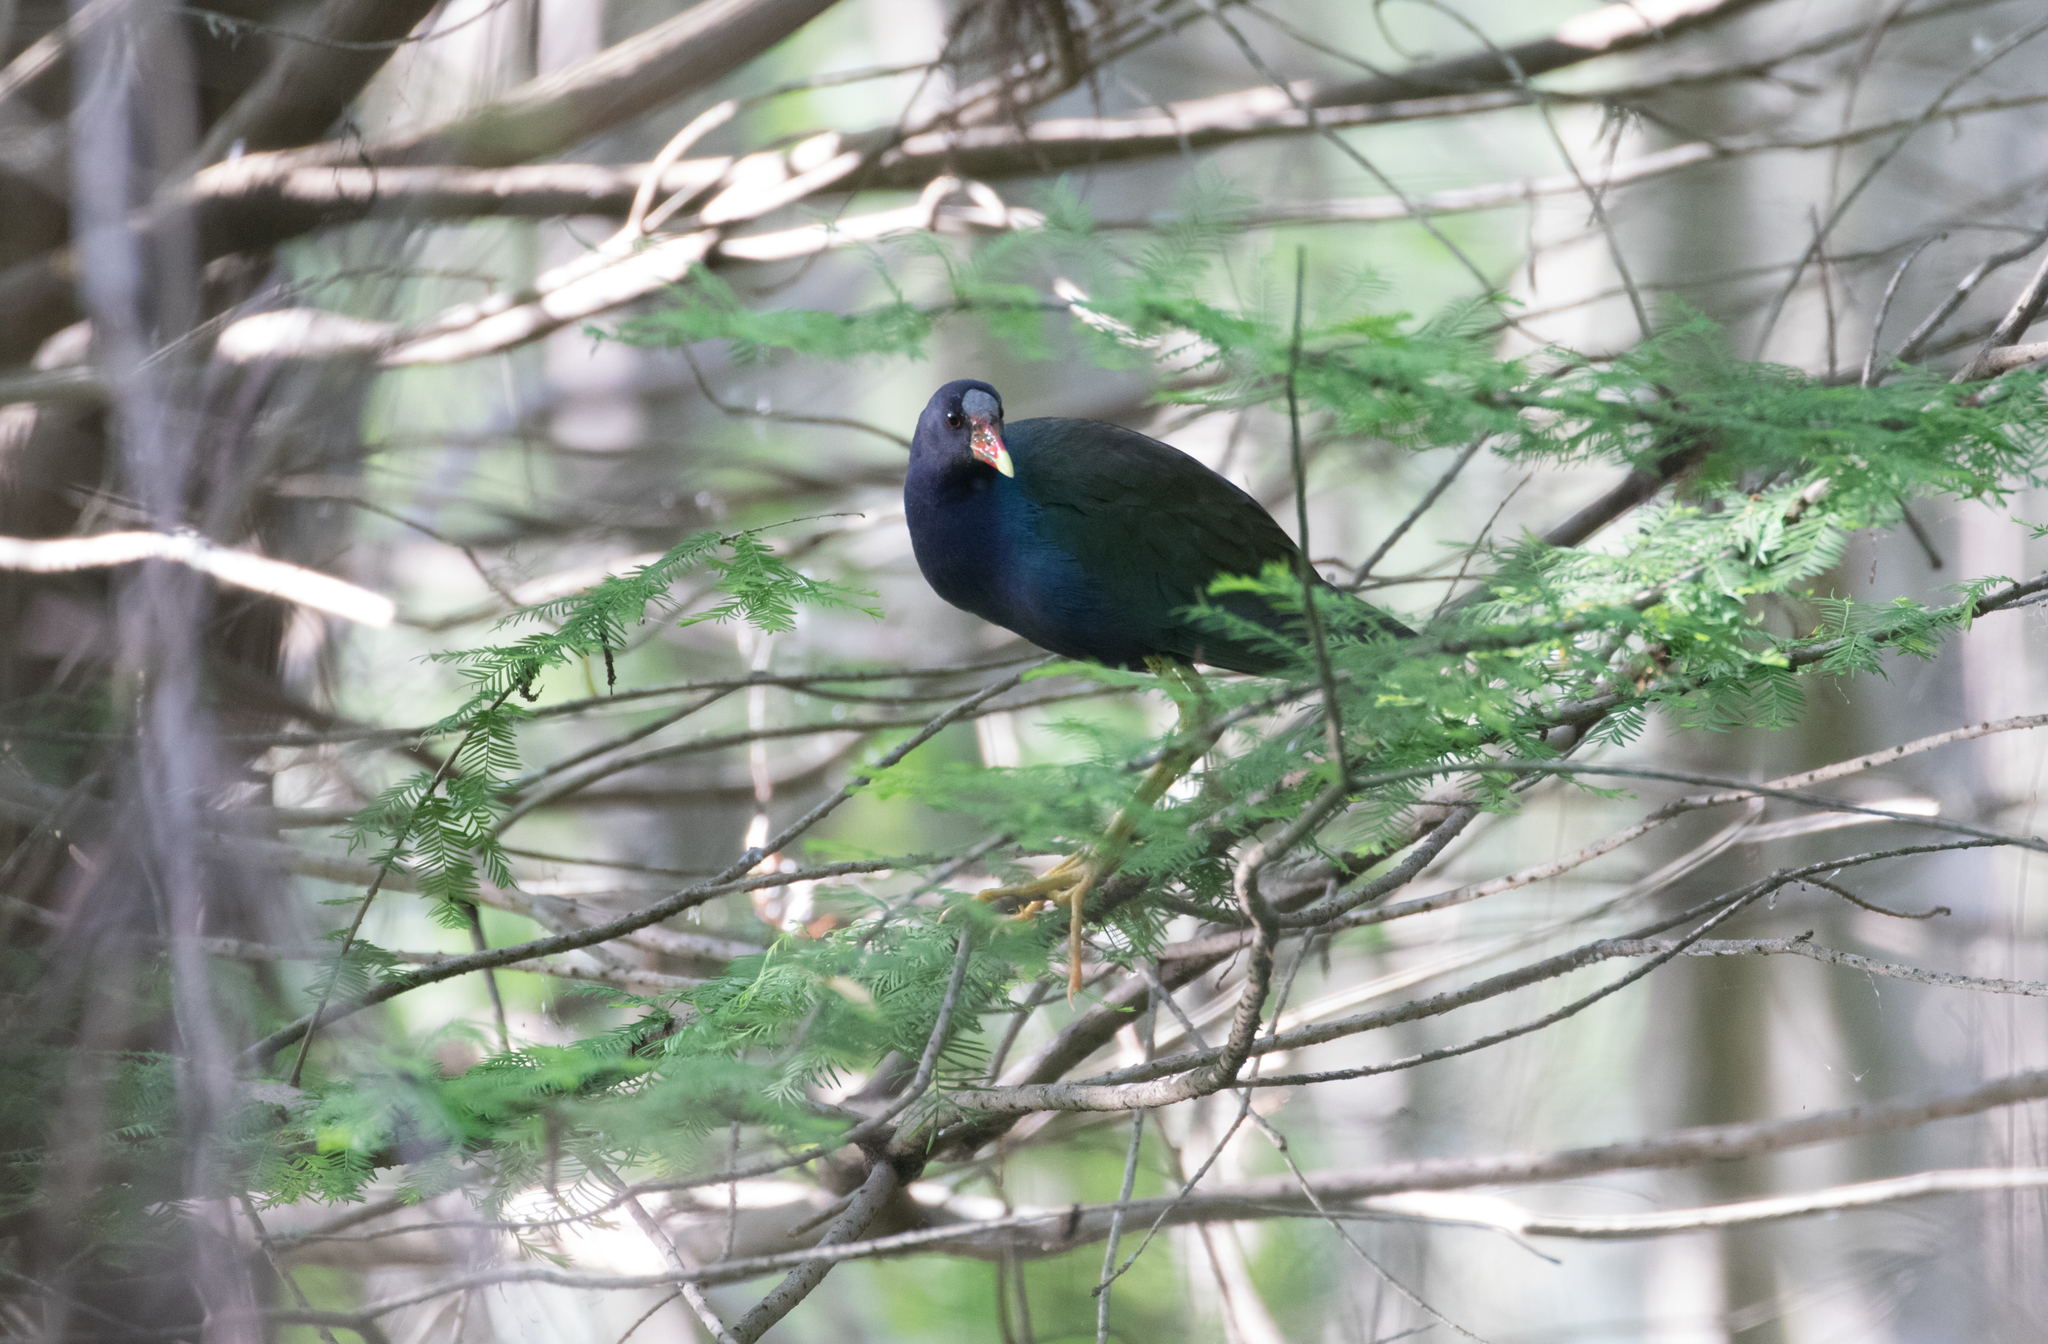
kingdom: Animalia
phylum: Chordata
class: Aves
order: Gruiformes
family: Rallidae
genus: Porphyrio
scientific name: Porphyrio martinica
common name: Purple gallinule
